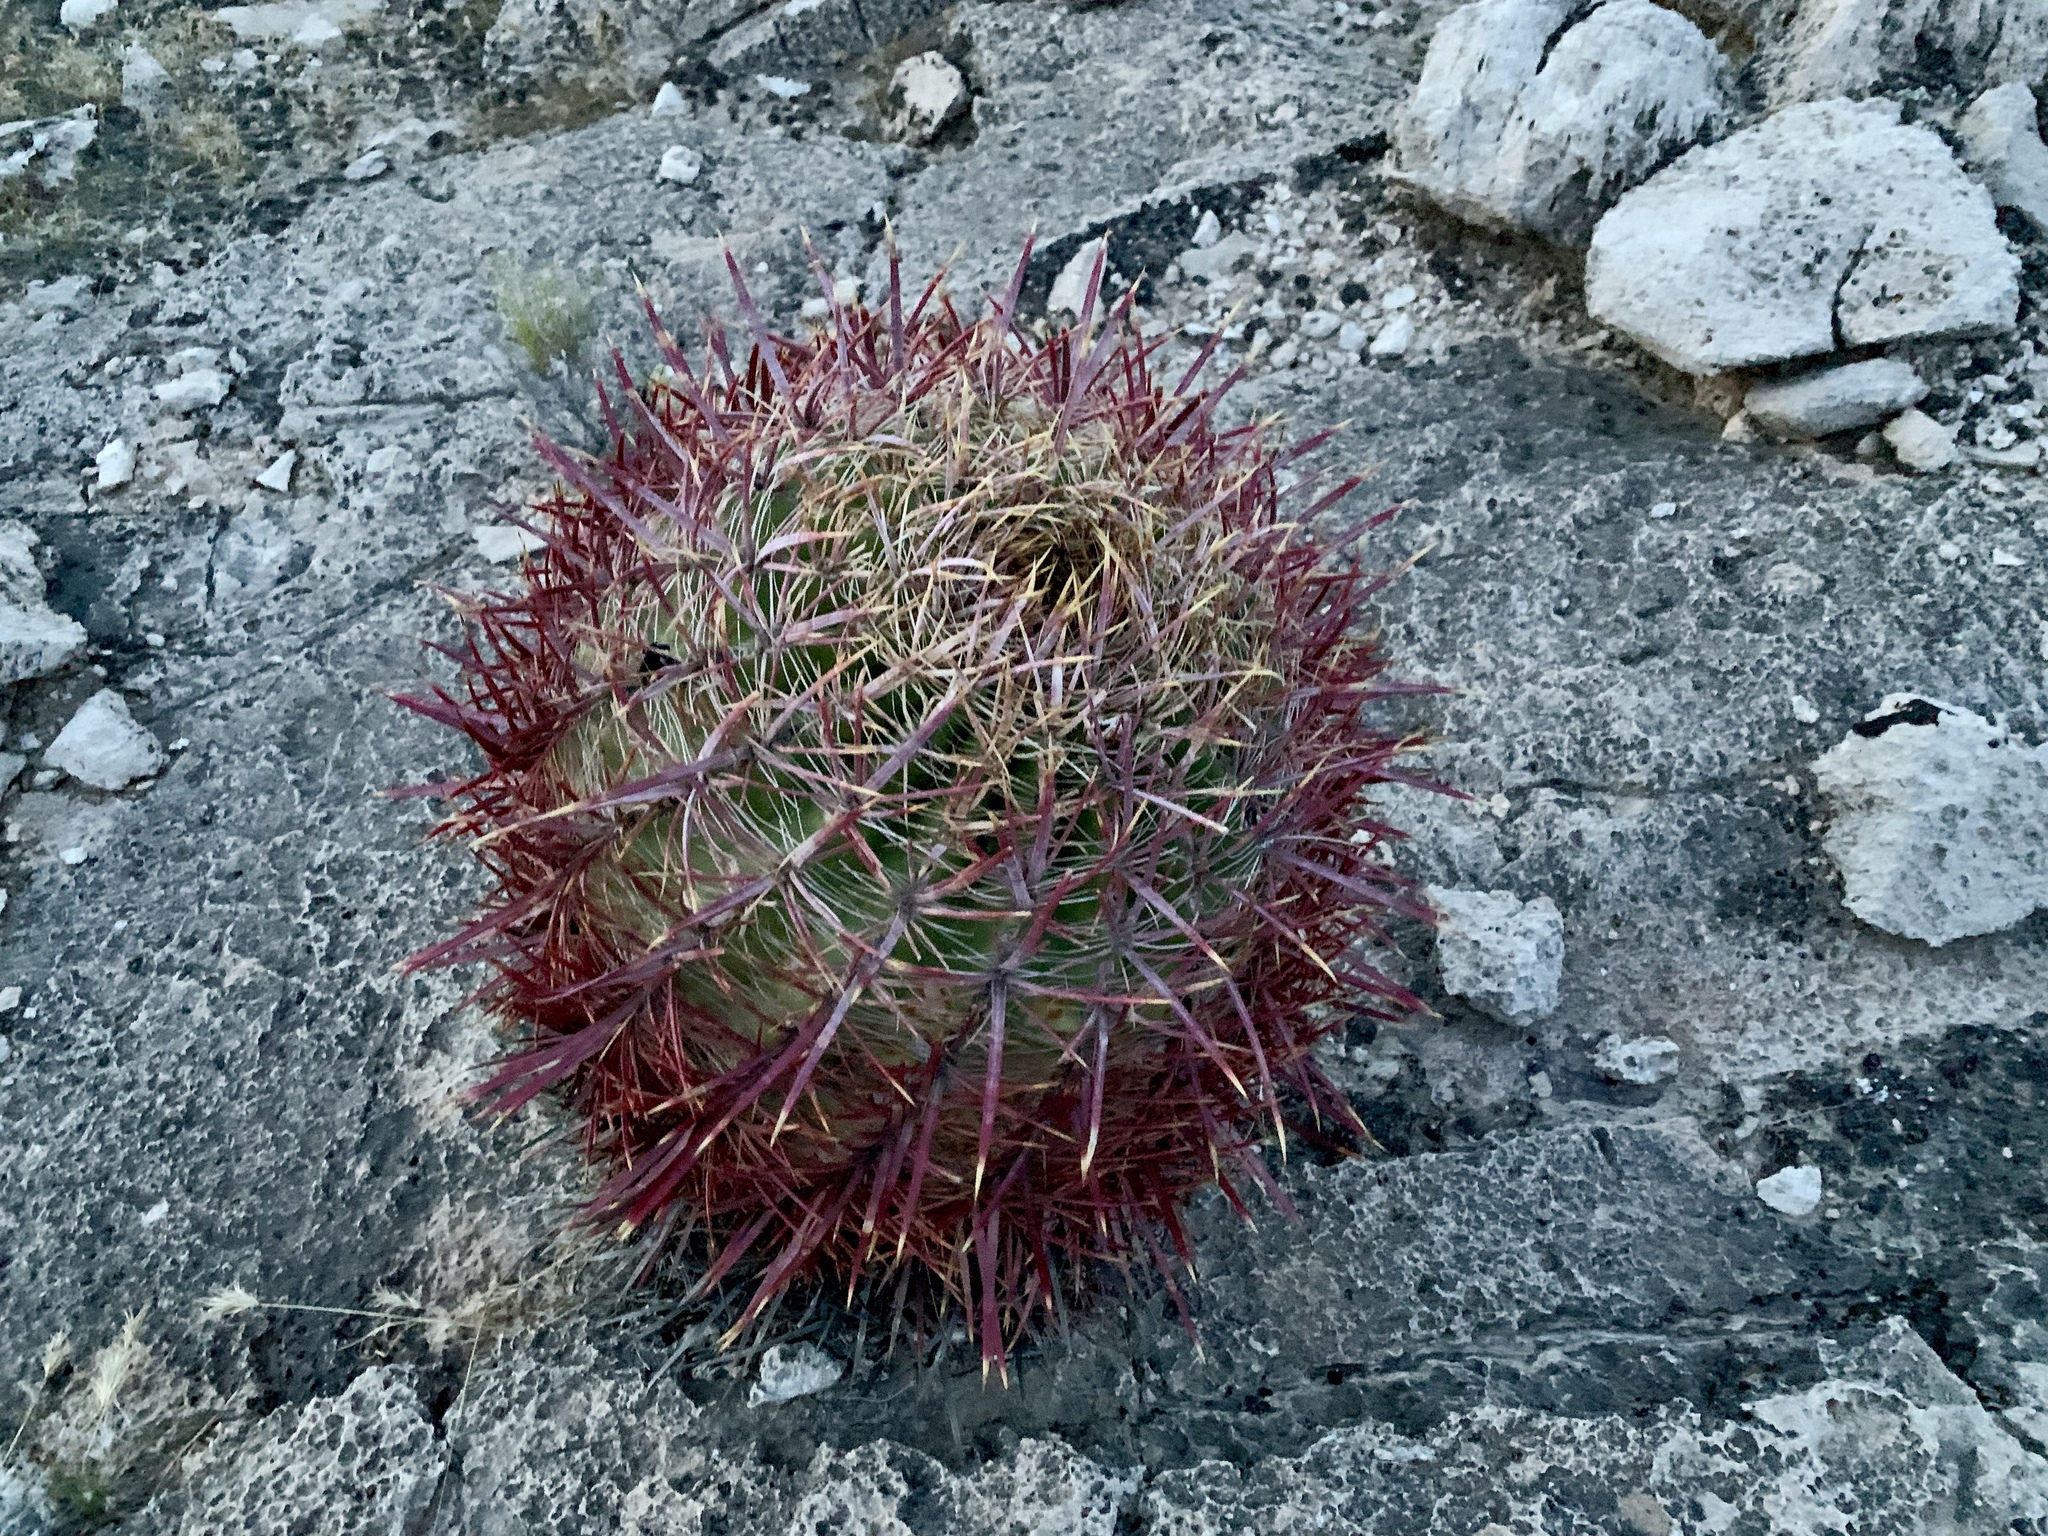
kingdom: Plantae
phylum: Tracheophyta
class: Magnoliopsida
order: Caryophyllales
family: Cactaceae
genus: Ferocactus
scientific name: Ferocactus cylindraceus
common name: California barrel cactus
